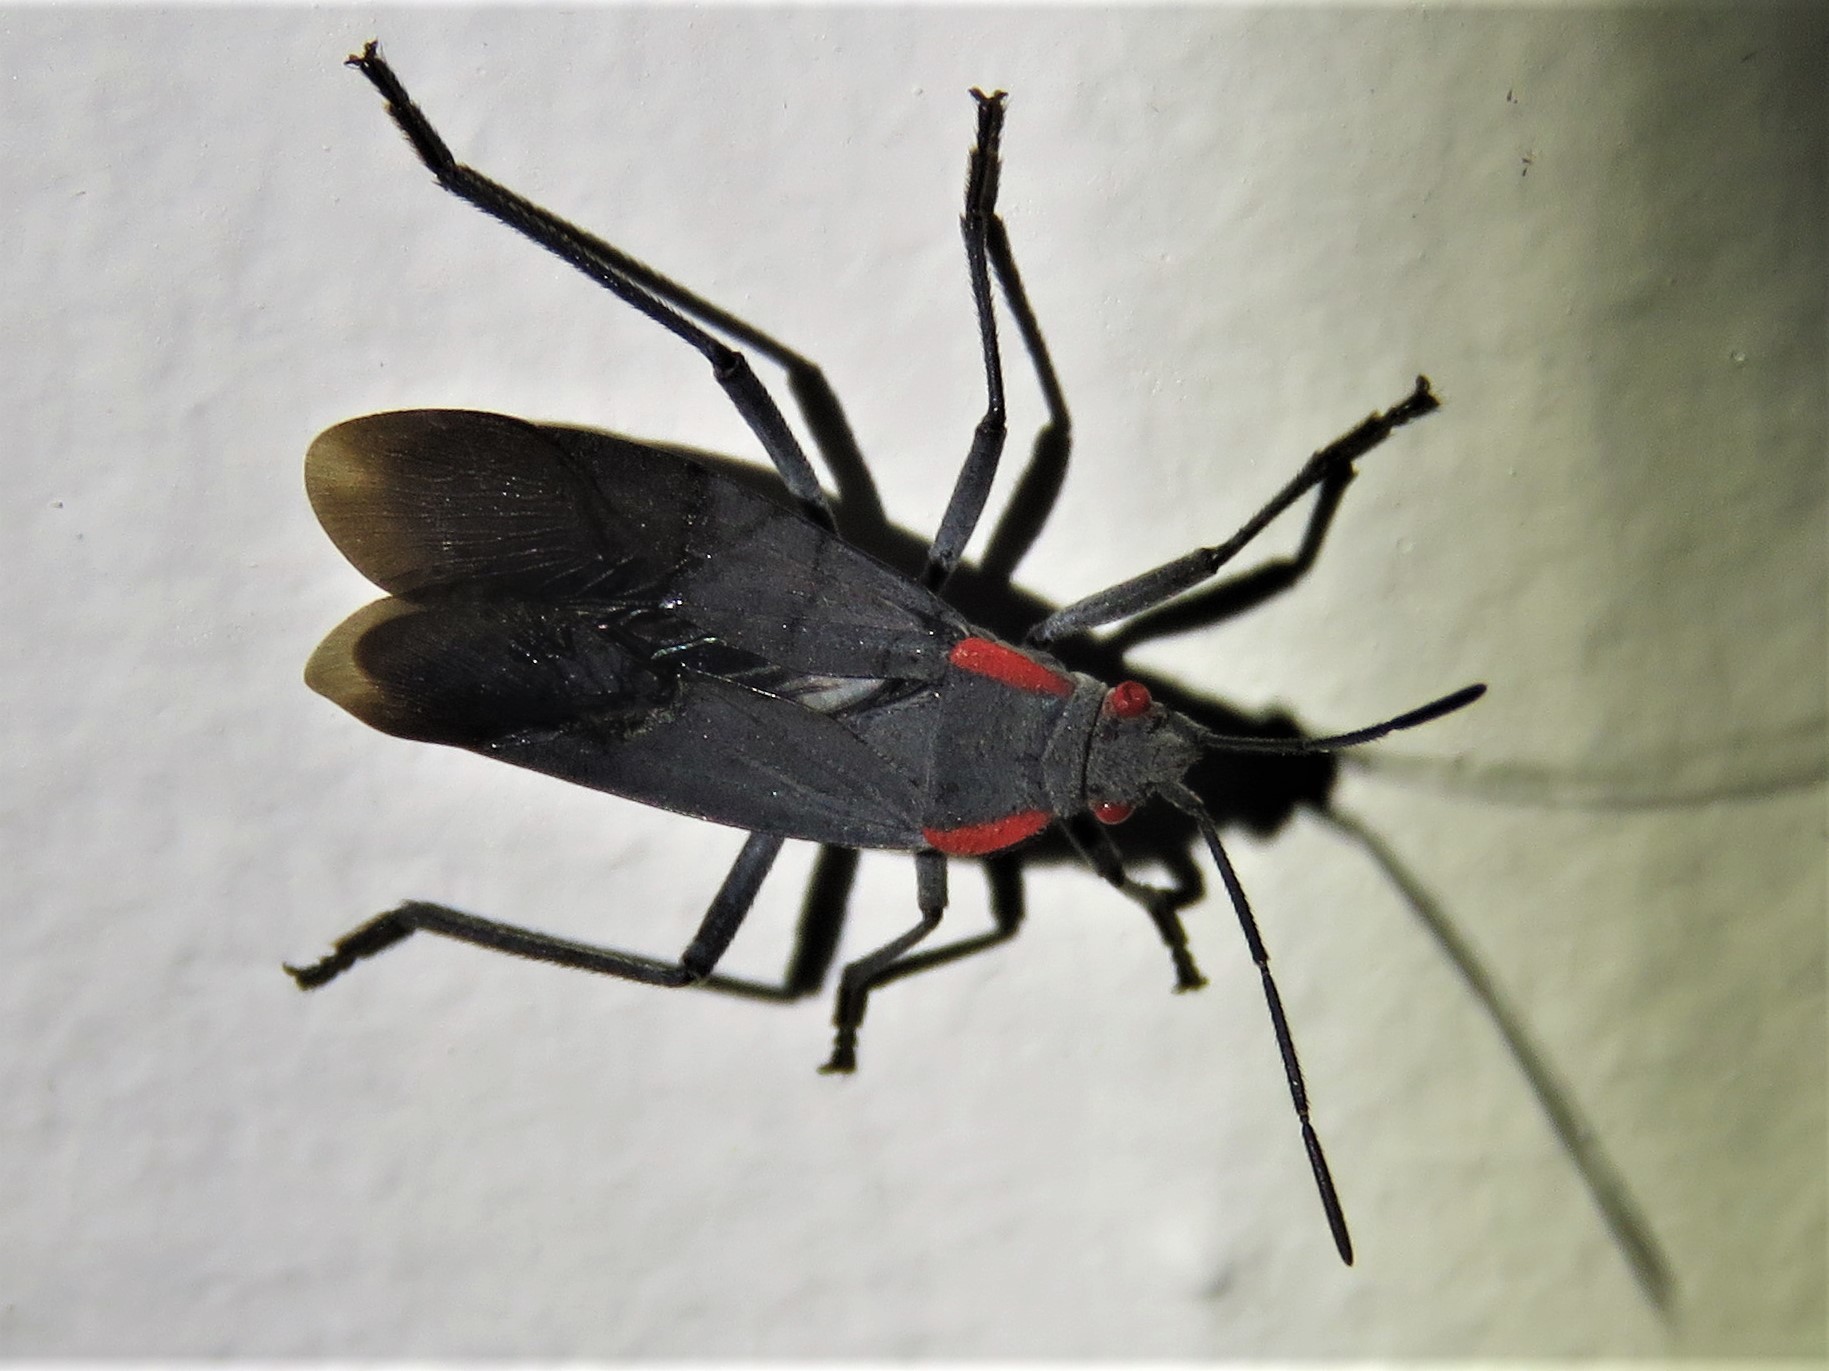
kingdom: Animalia
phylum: Arthropoda
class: Insecta
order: Hemiptera
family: Rhopalidae
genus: Jadera
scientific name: Jadera haematoloma
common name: Red-shouldered bug
